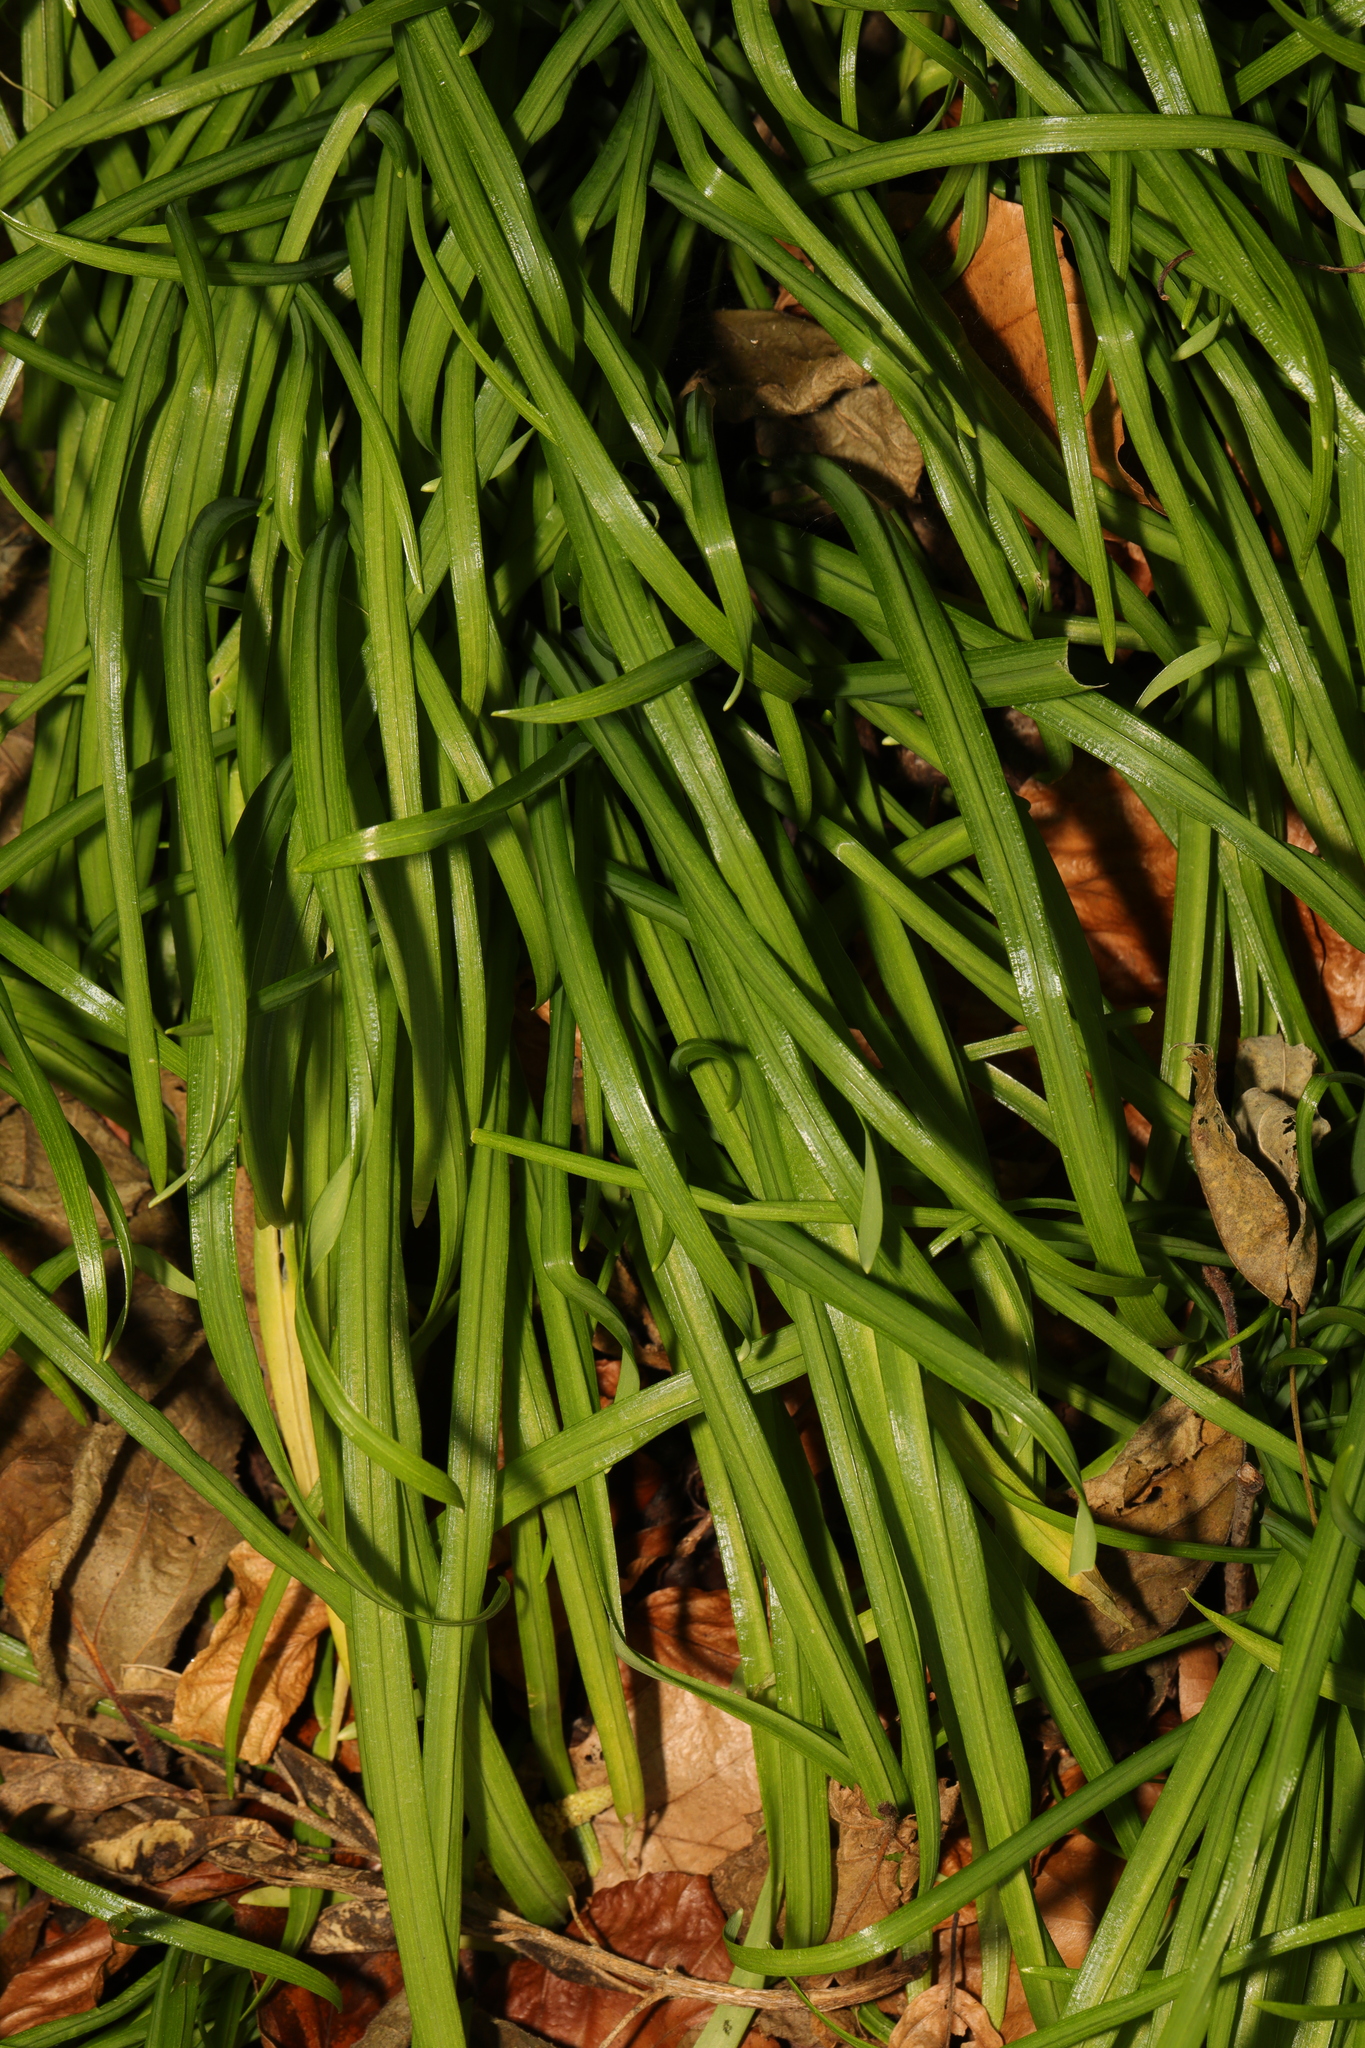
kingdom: Plantae
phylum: Tracheophyta
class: Liliopsida
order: Asparagales
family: Amaryllidaceae
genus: Allium
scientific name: Allium triquetrum
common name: Three-cornered garlic
